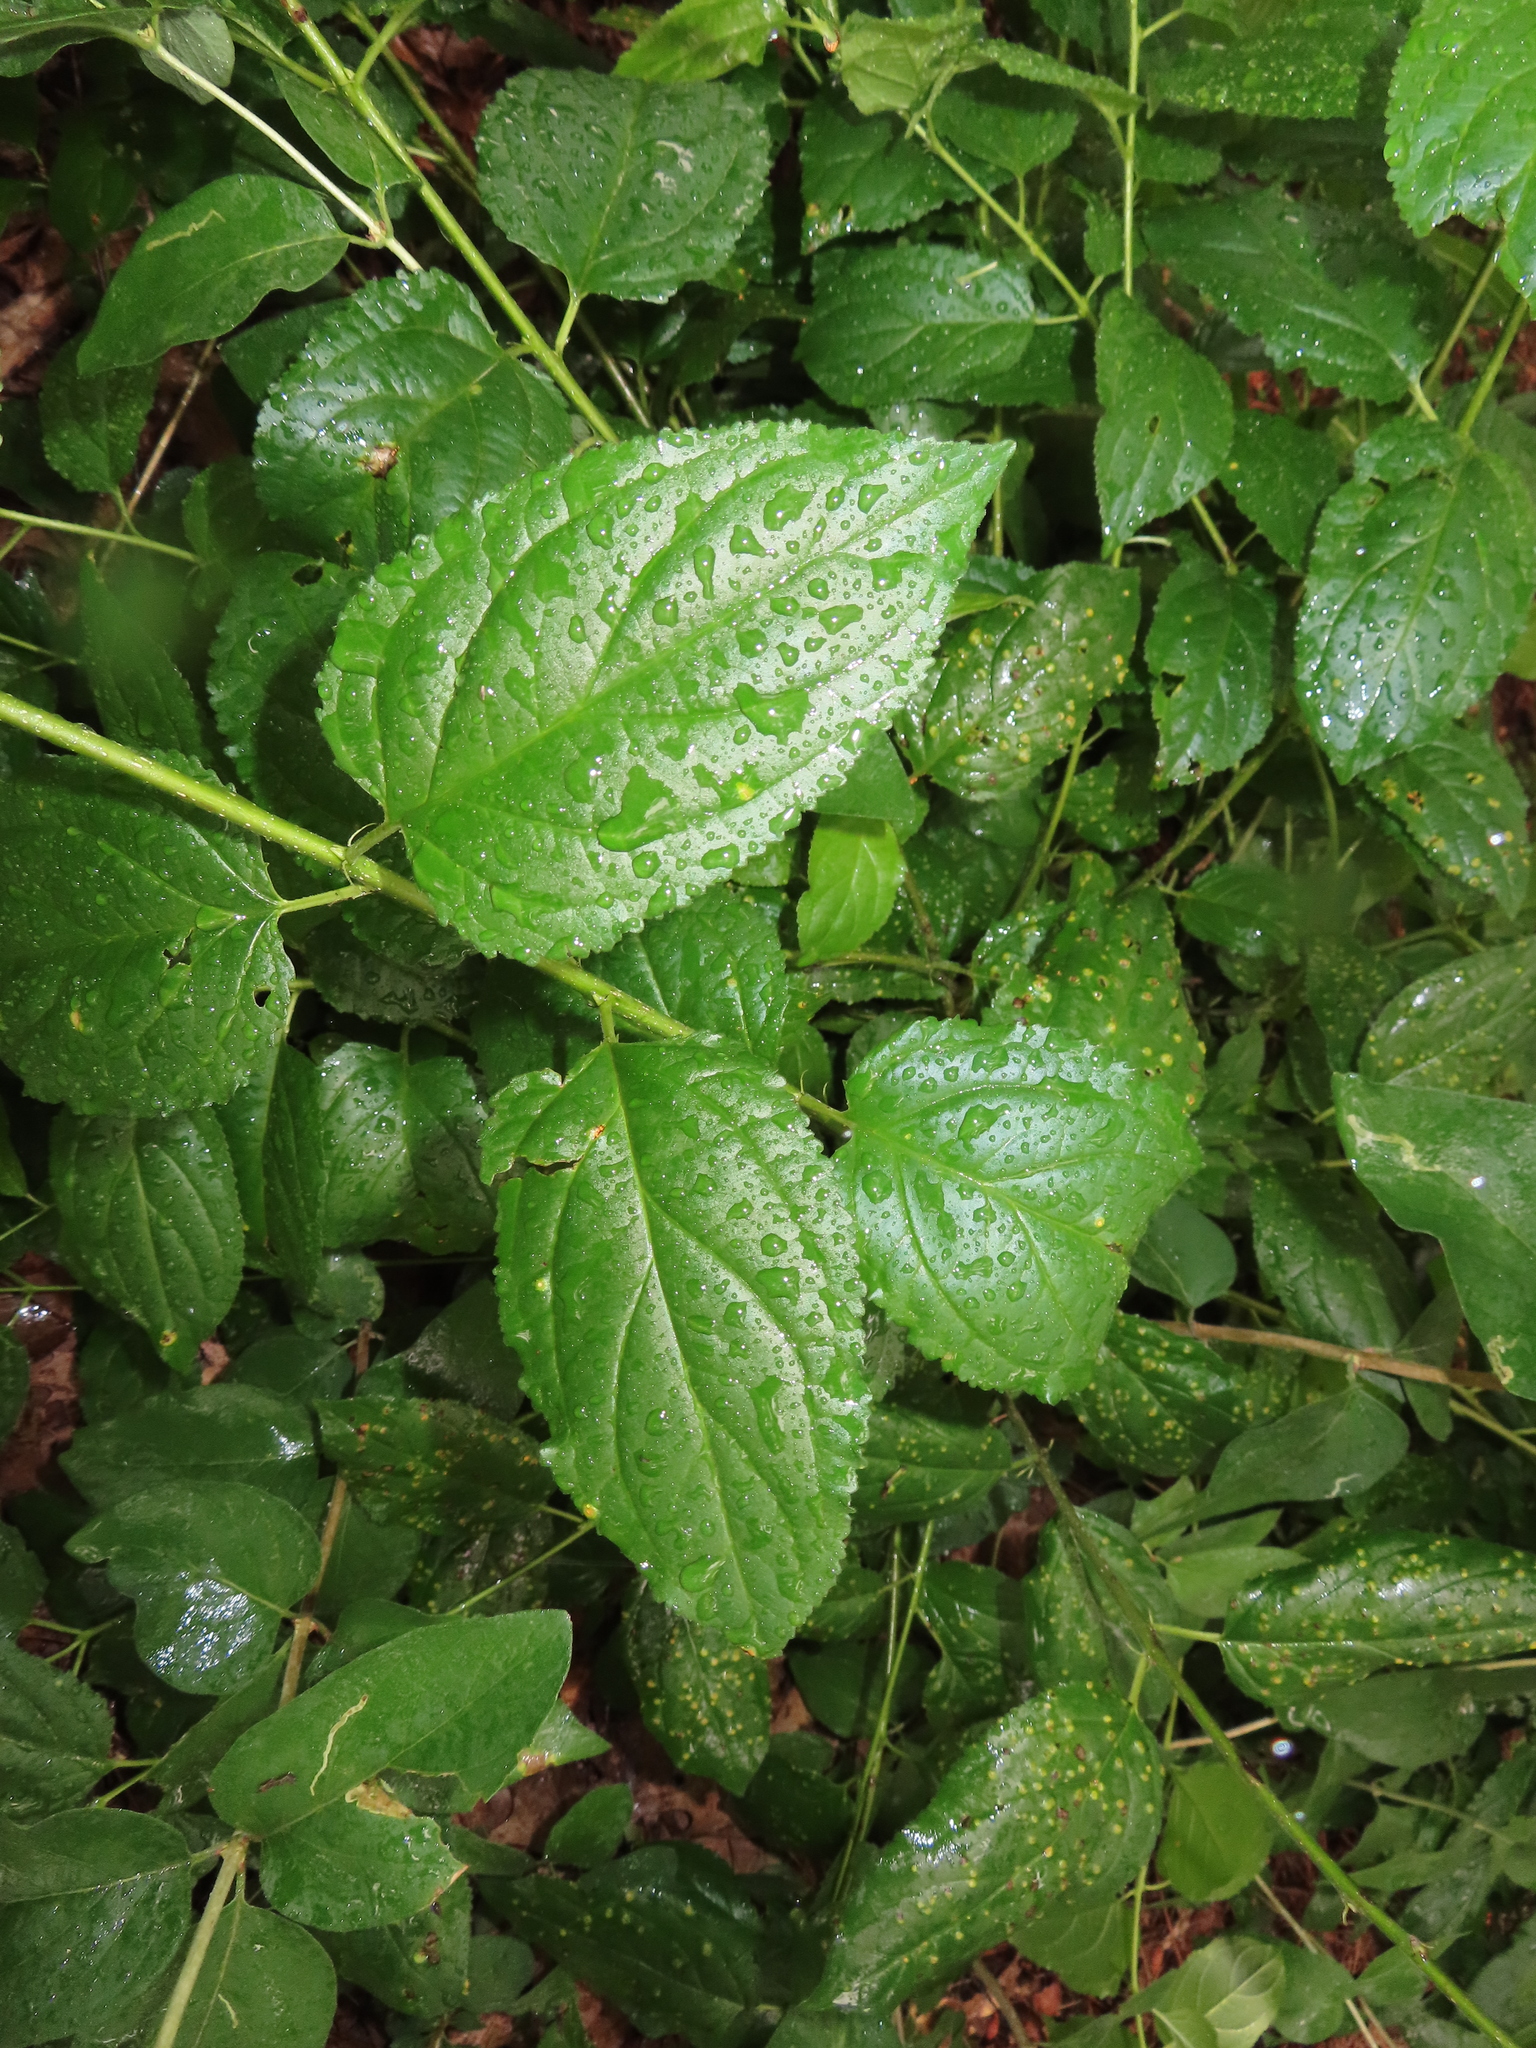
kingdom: Plantae
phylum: Tracheophyta
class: Magnoliopsida
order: Rosales
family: Rhamnaceae
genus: Rhamnus
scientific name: Rhamnus cathartica
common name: Common buckthorn
